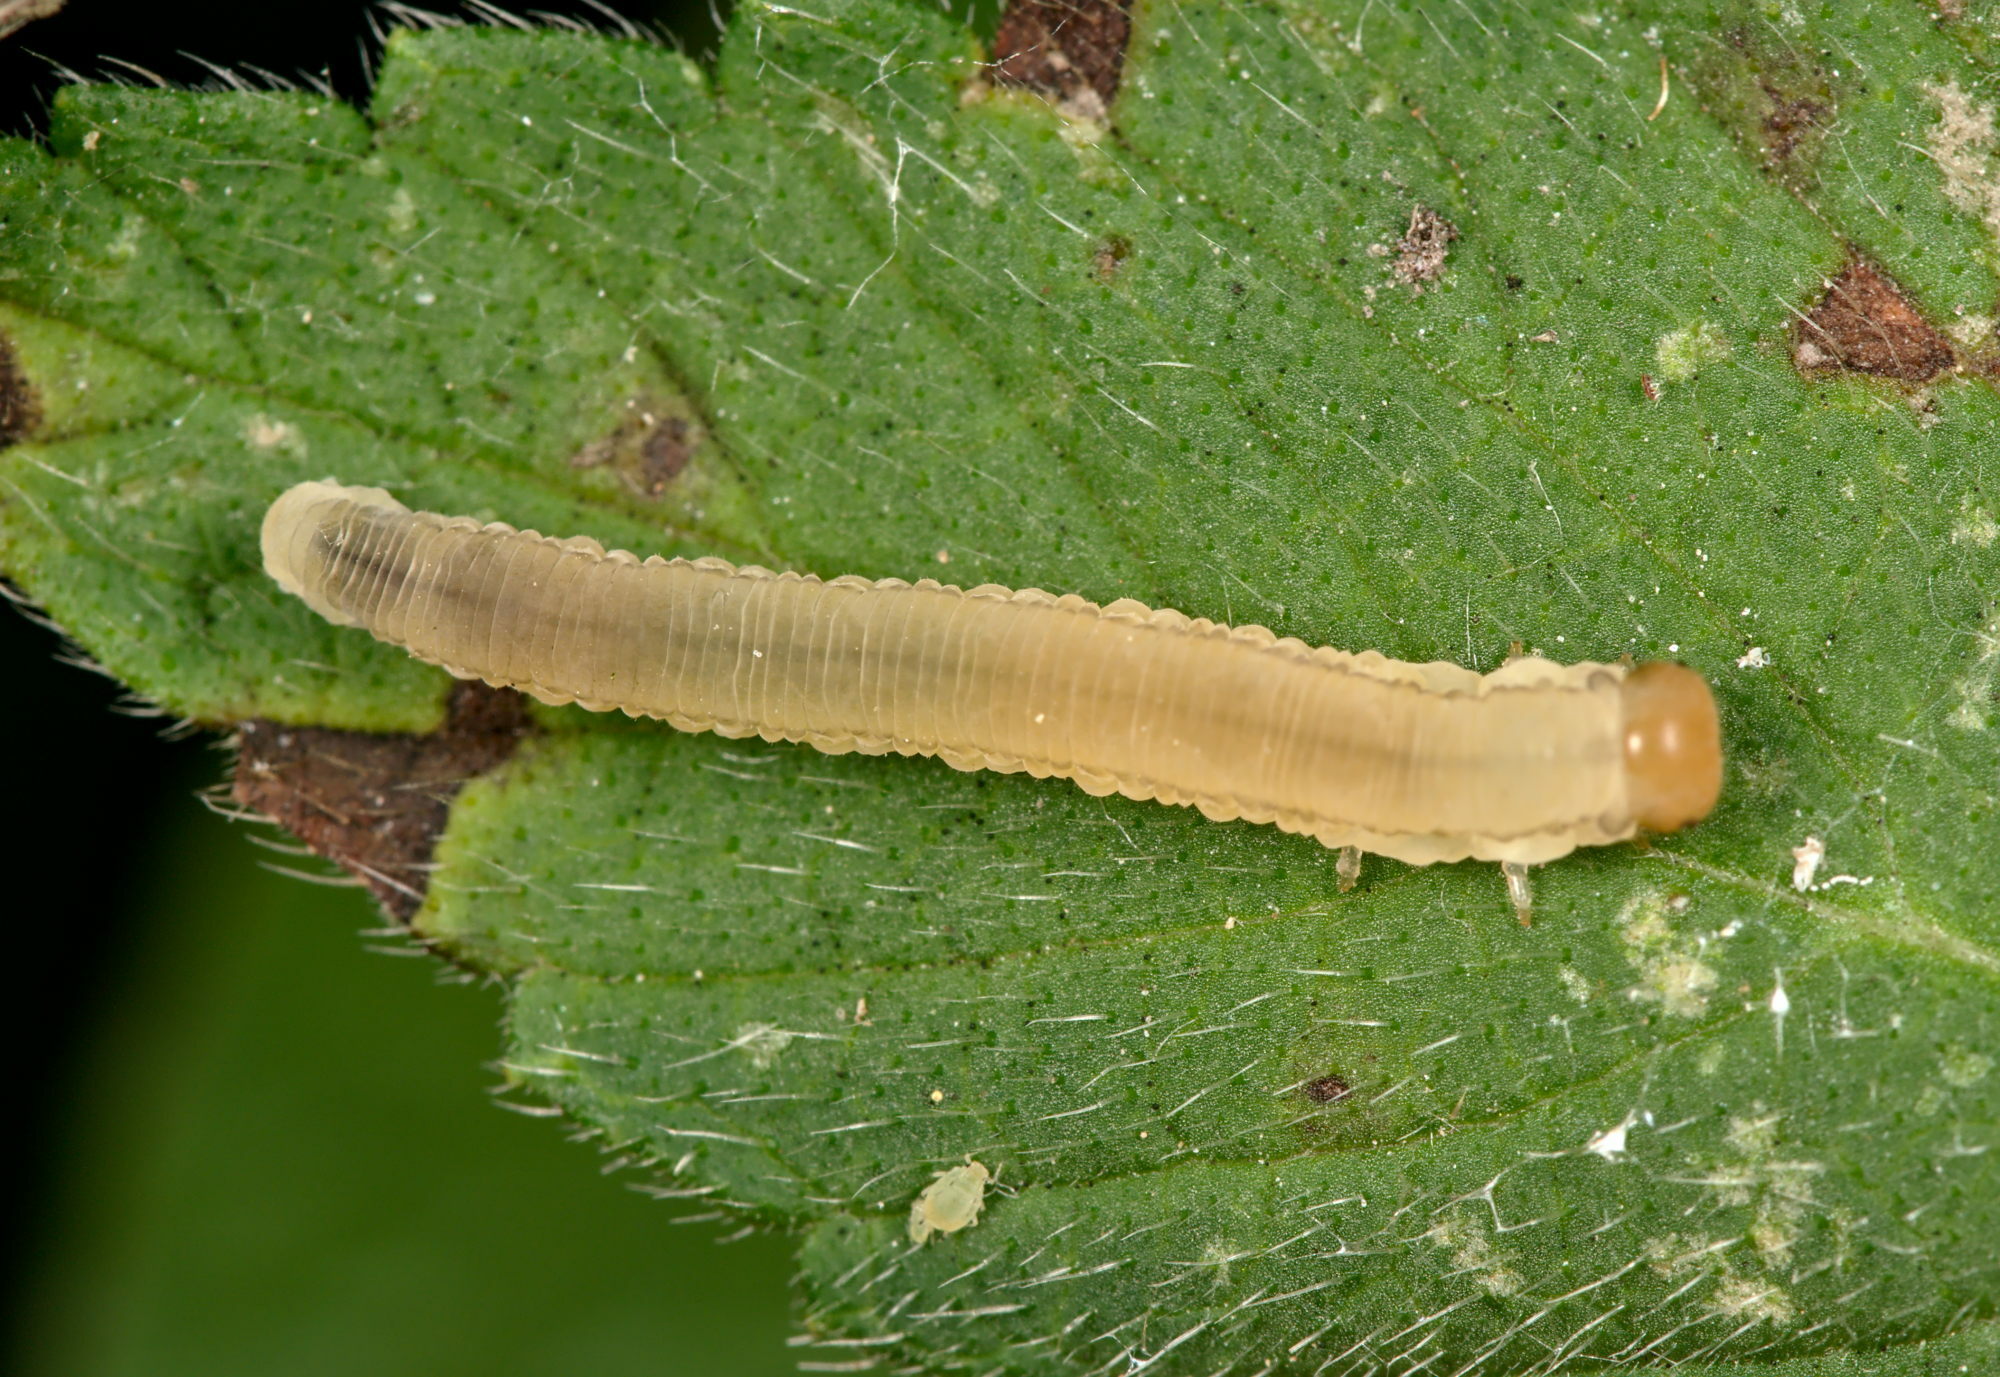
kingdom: Animalia
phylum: Arthropoda
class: Insecta
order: Hymenoptera
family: Tenthredinidae
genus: Pachyprotasis
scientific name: Pachyprotasis rapae
